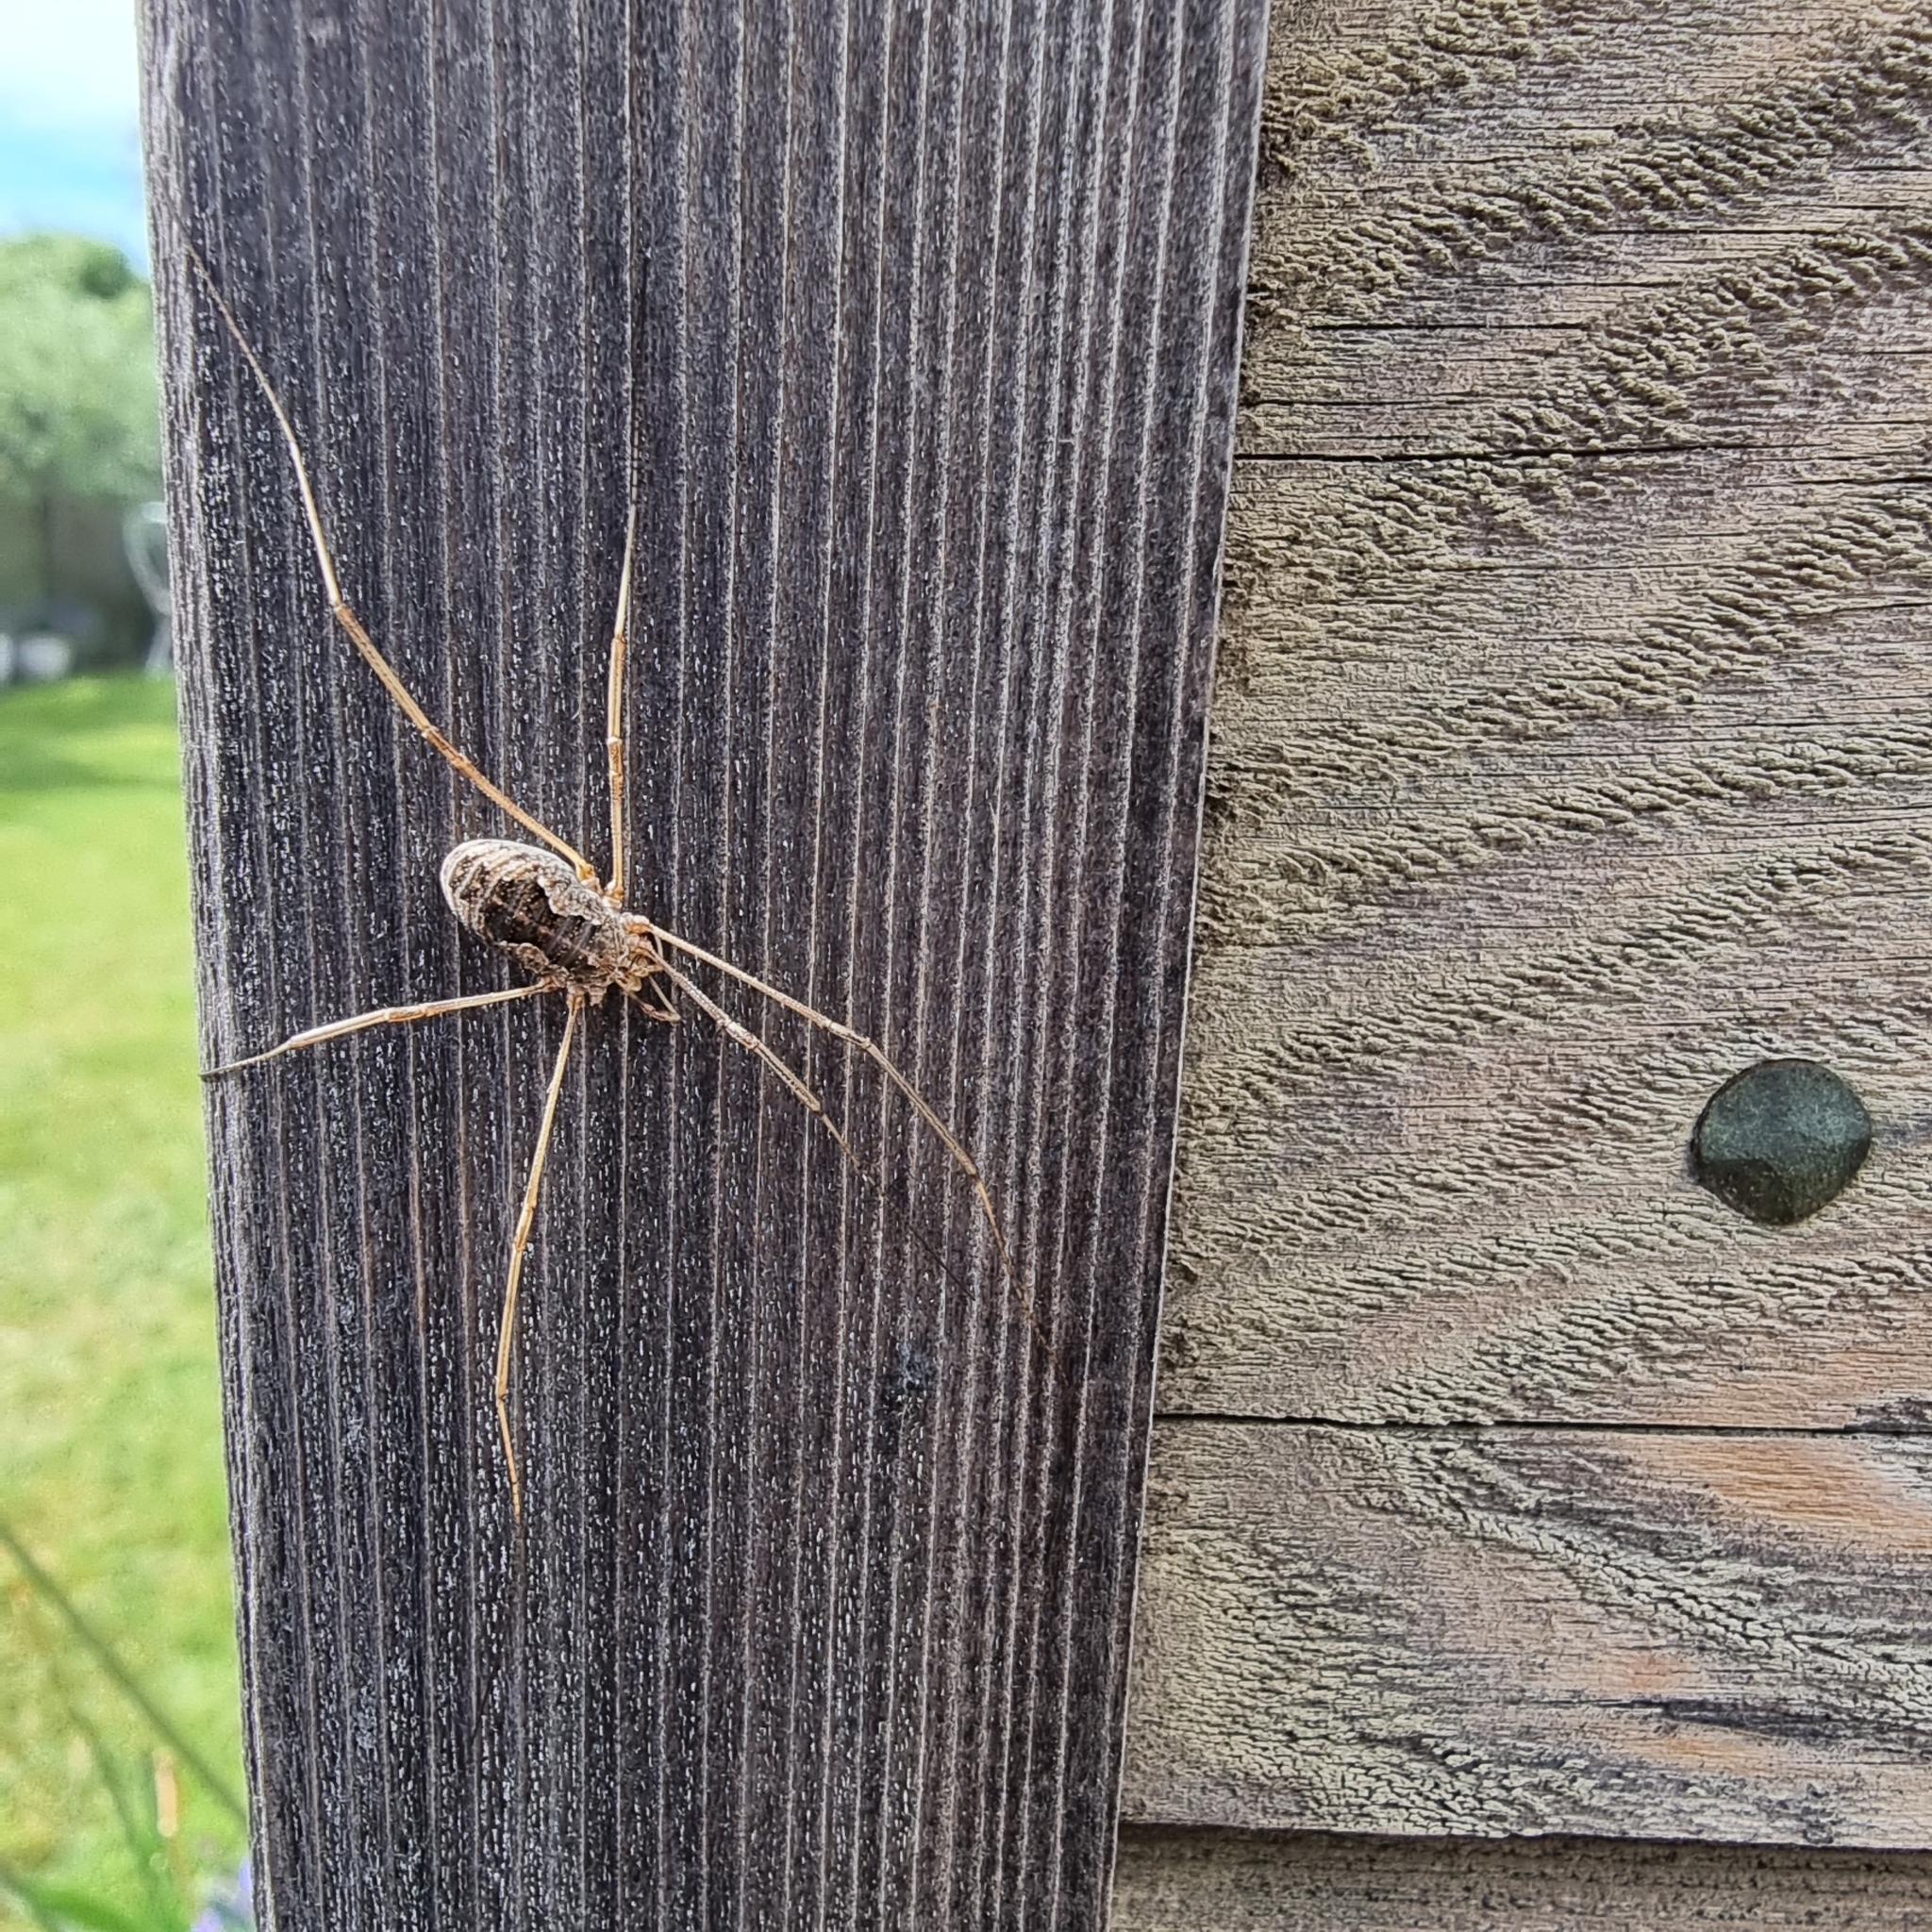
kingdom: Animalia
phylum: Arthropoda
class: Arachnida
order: Opiliones
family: Phalangiidae
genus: Phalangium
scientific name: Phalangium opilio
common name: Daddy longleg
